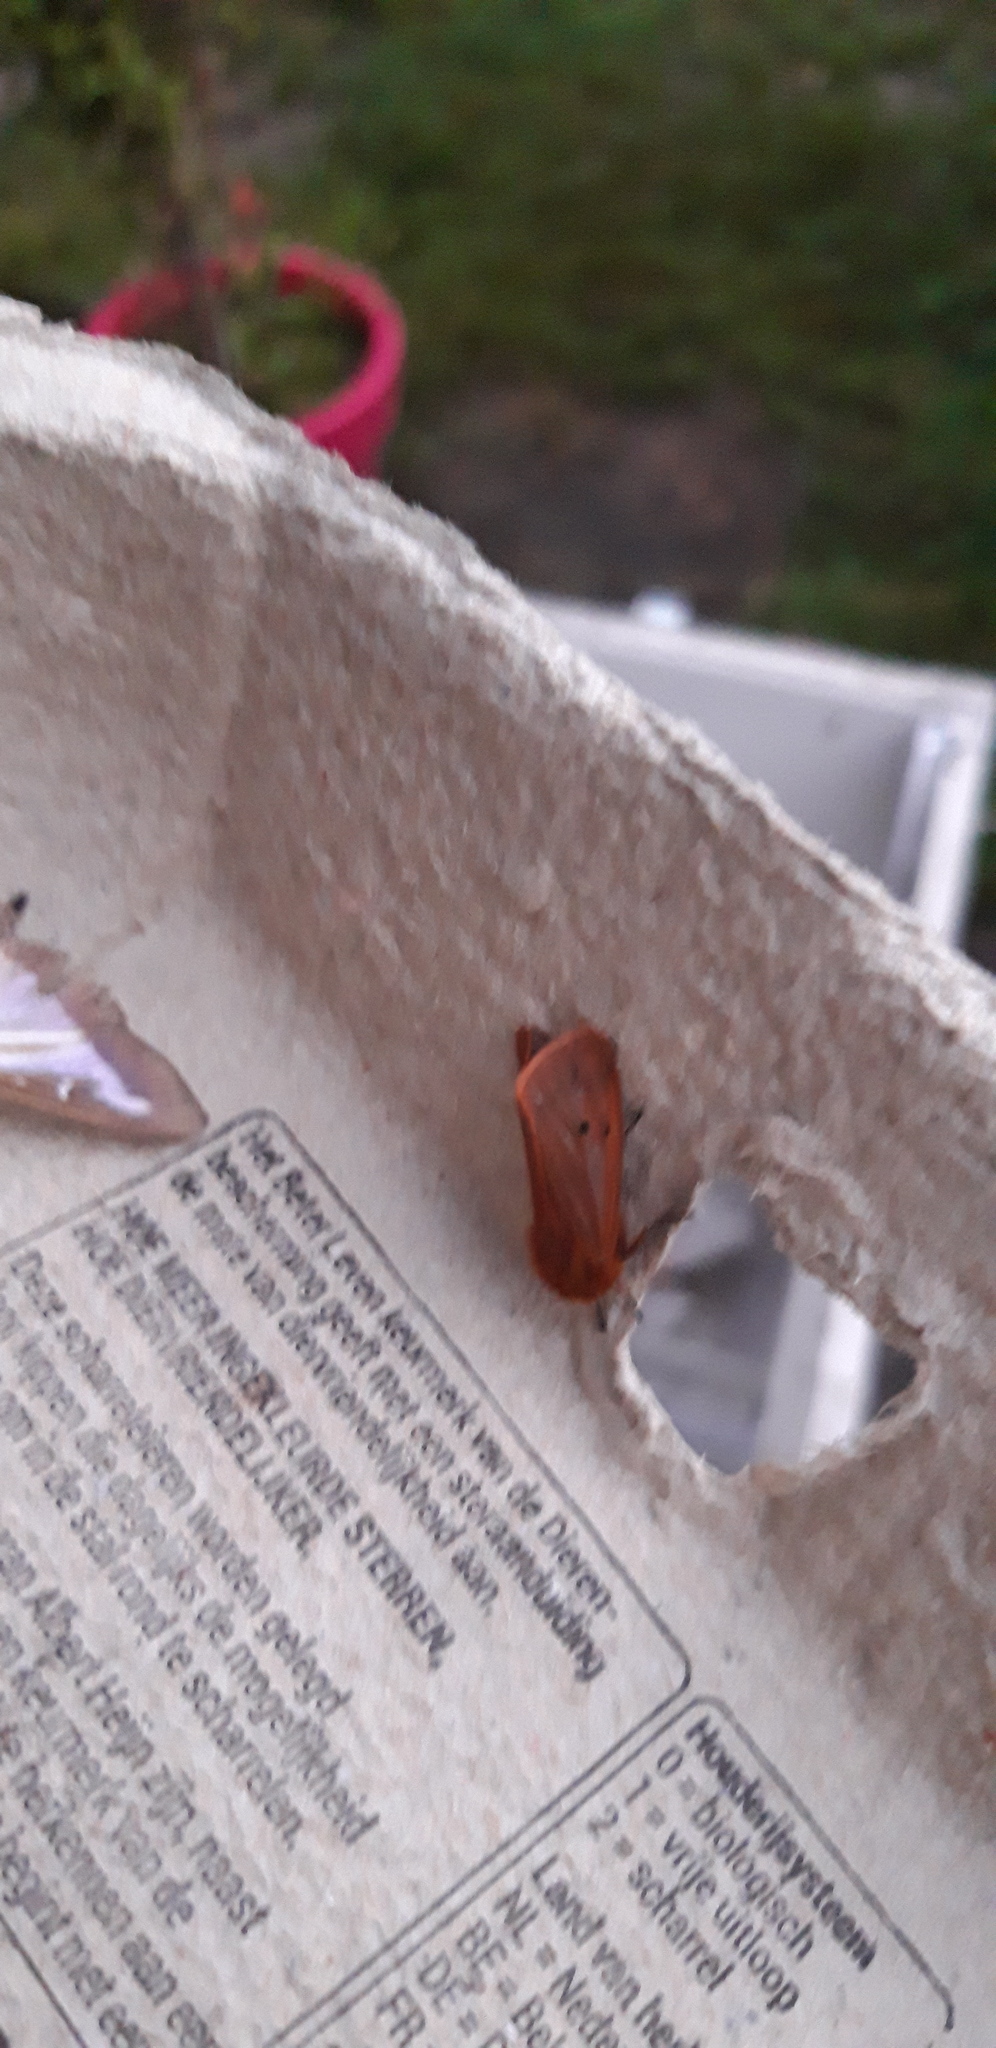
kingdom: Animalia
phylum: Arthropoda
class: Insecta
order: Lepidoptera
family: Erebidae
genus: Phragmatobia
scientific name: Phragmatobia fuliginosa
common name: Ruby tiger
